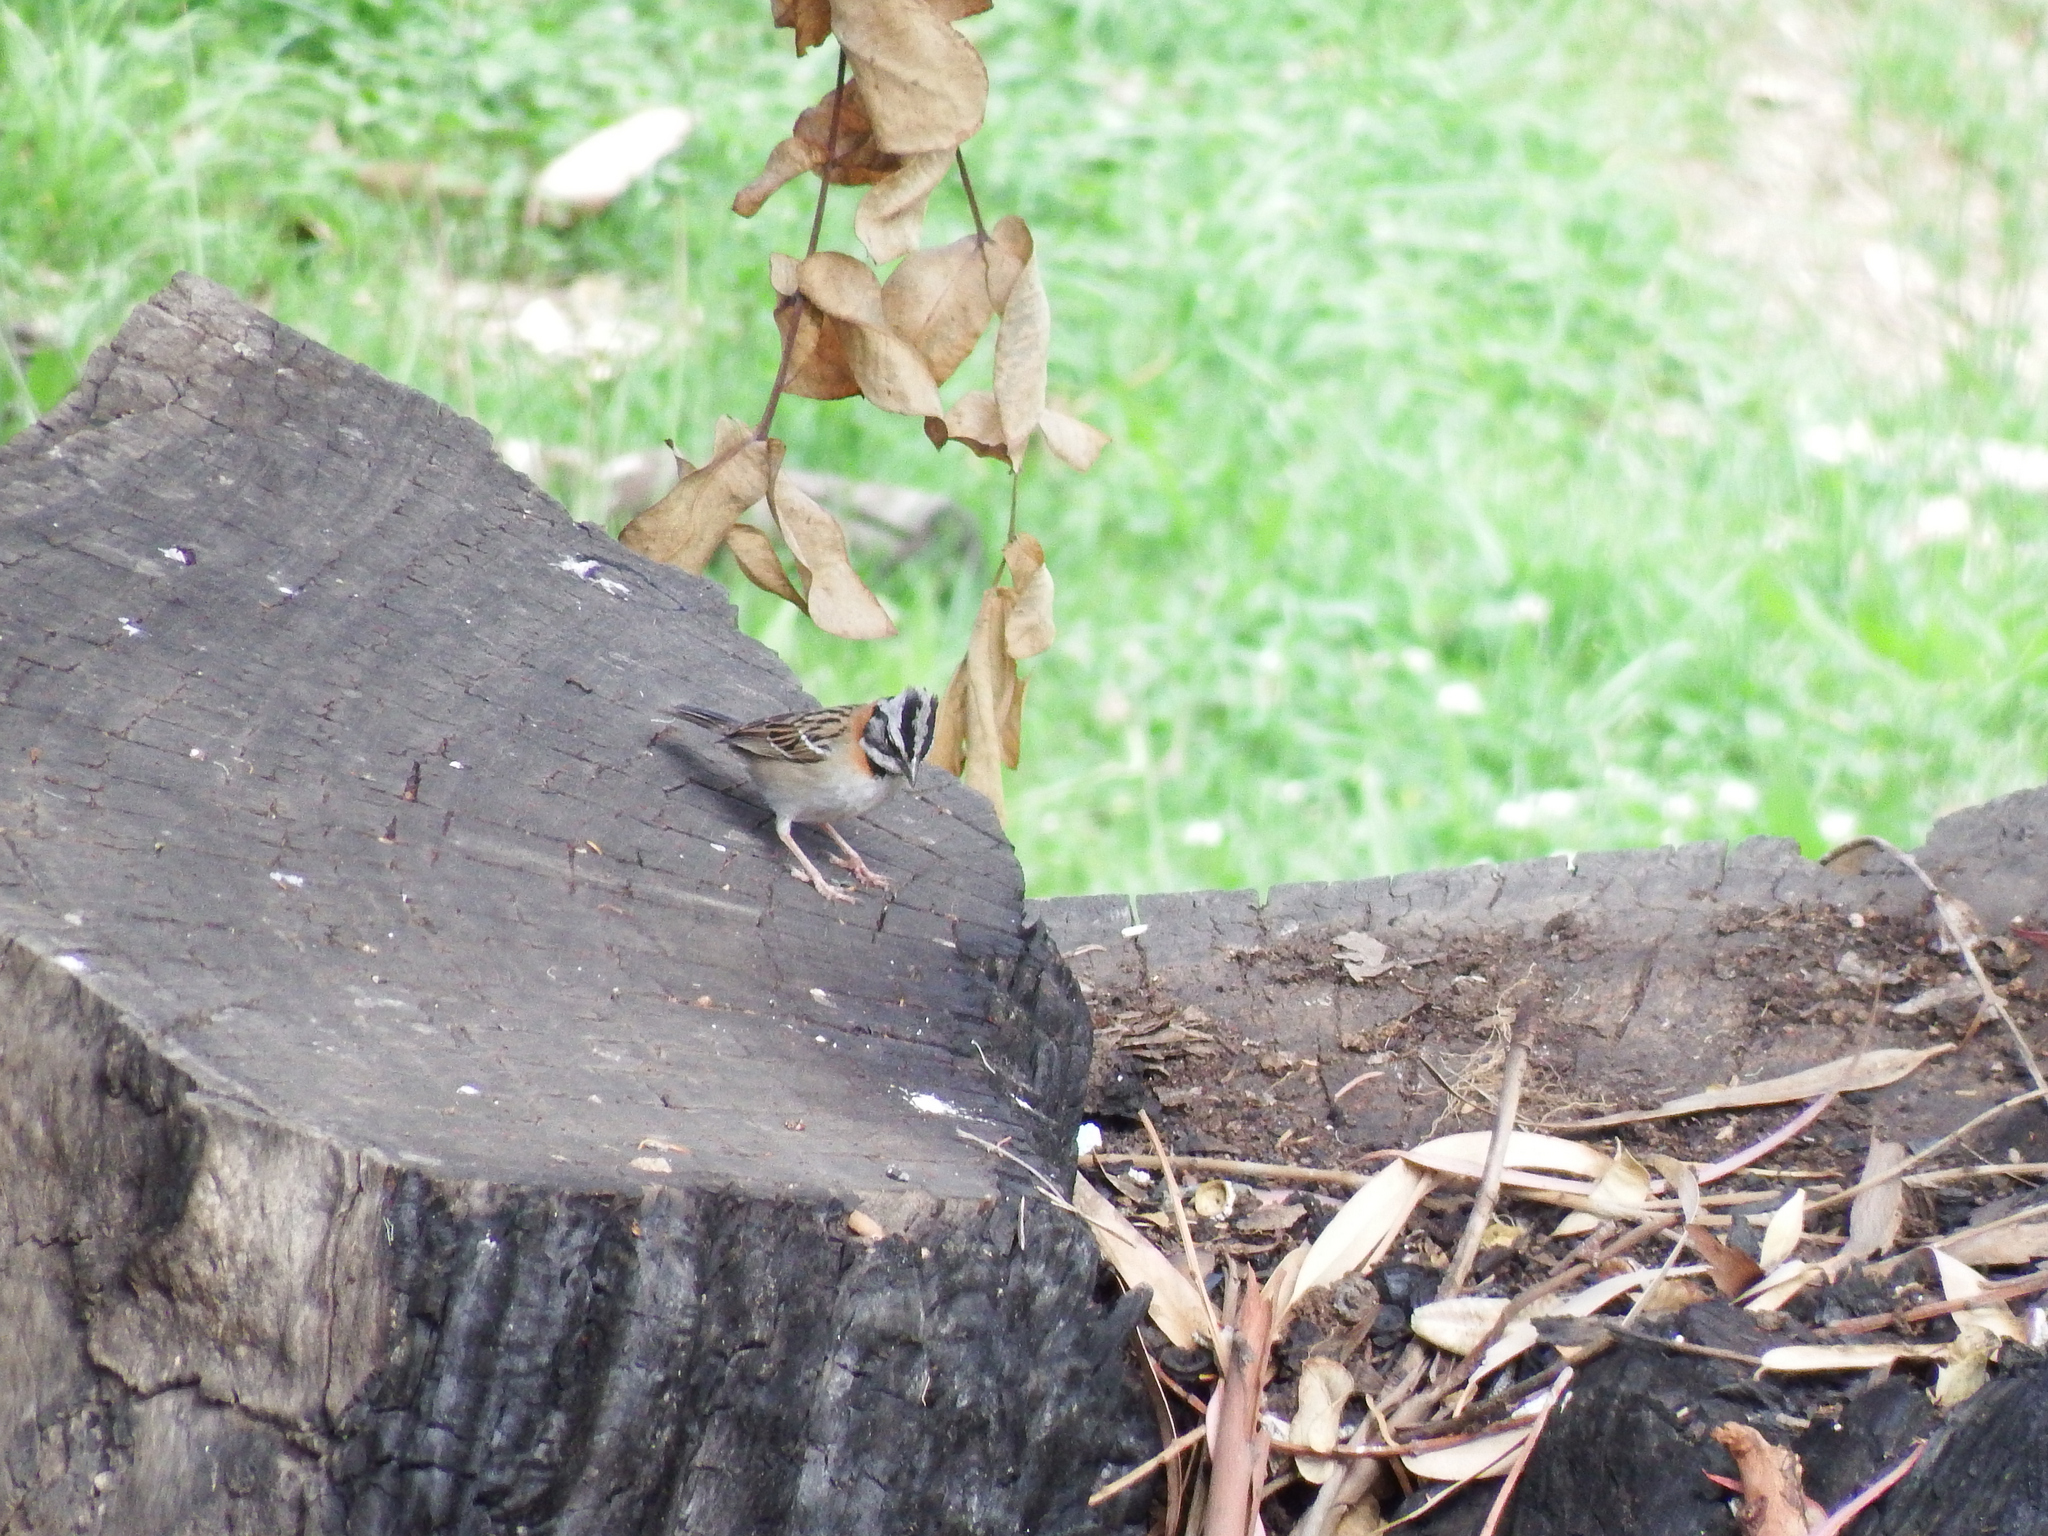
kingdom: Animalia
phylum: Chordata
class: Aves
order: Passeriformes
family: Passerellidae
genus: Zonotrichia
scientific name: Zonotrichia capensis
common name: Rufous-collared sparrow
